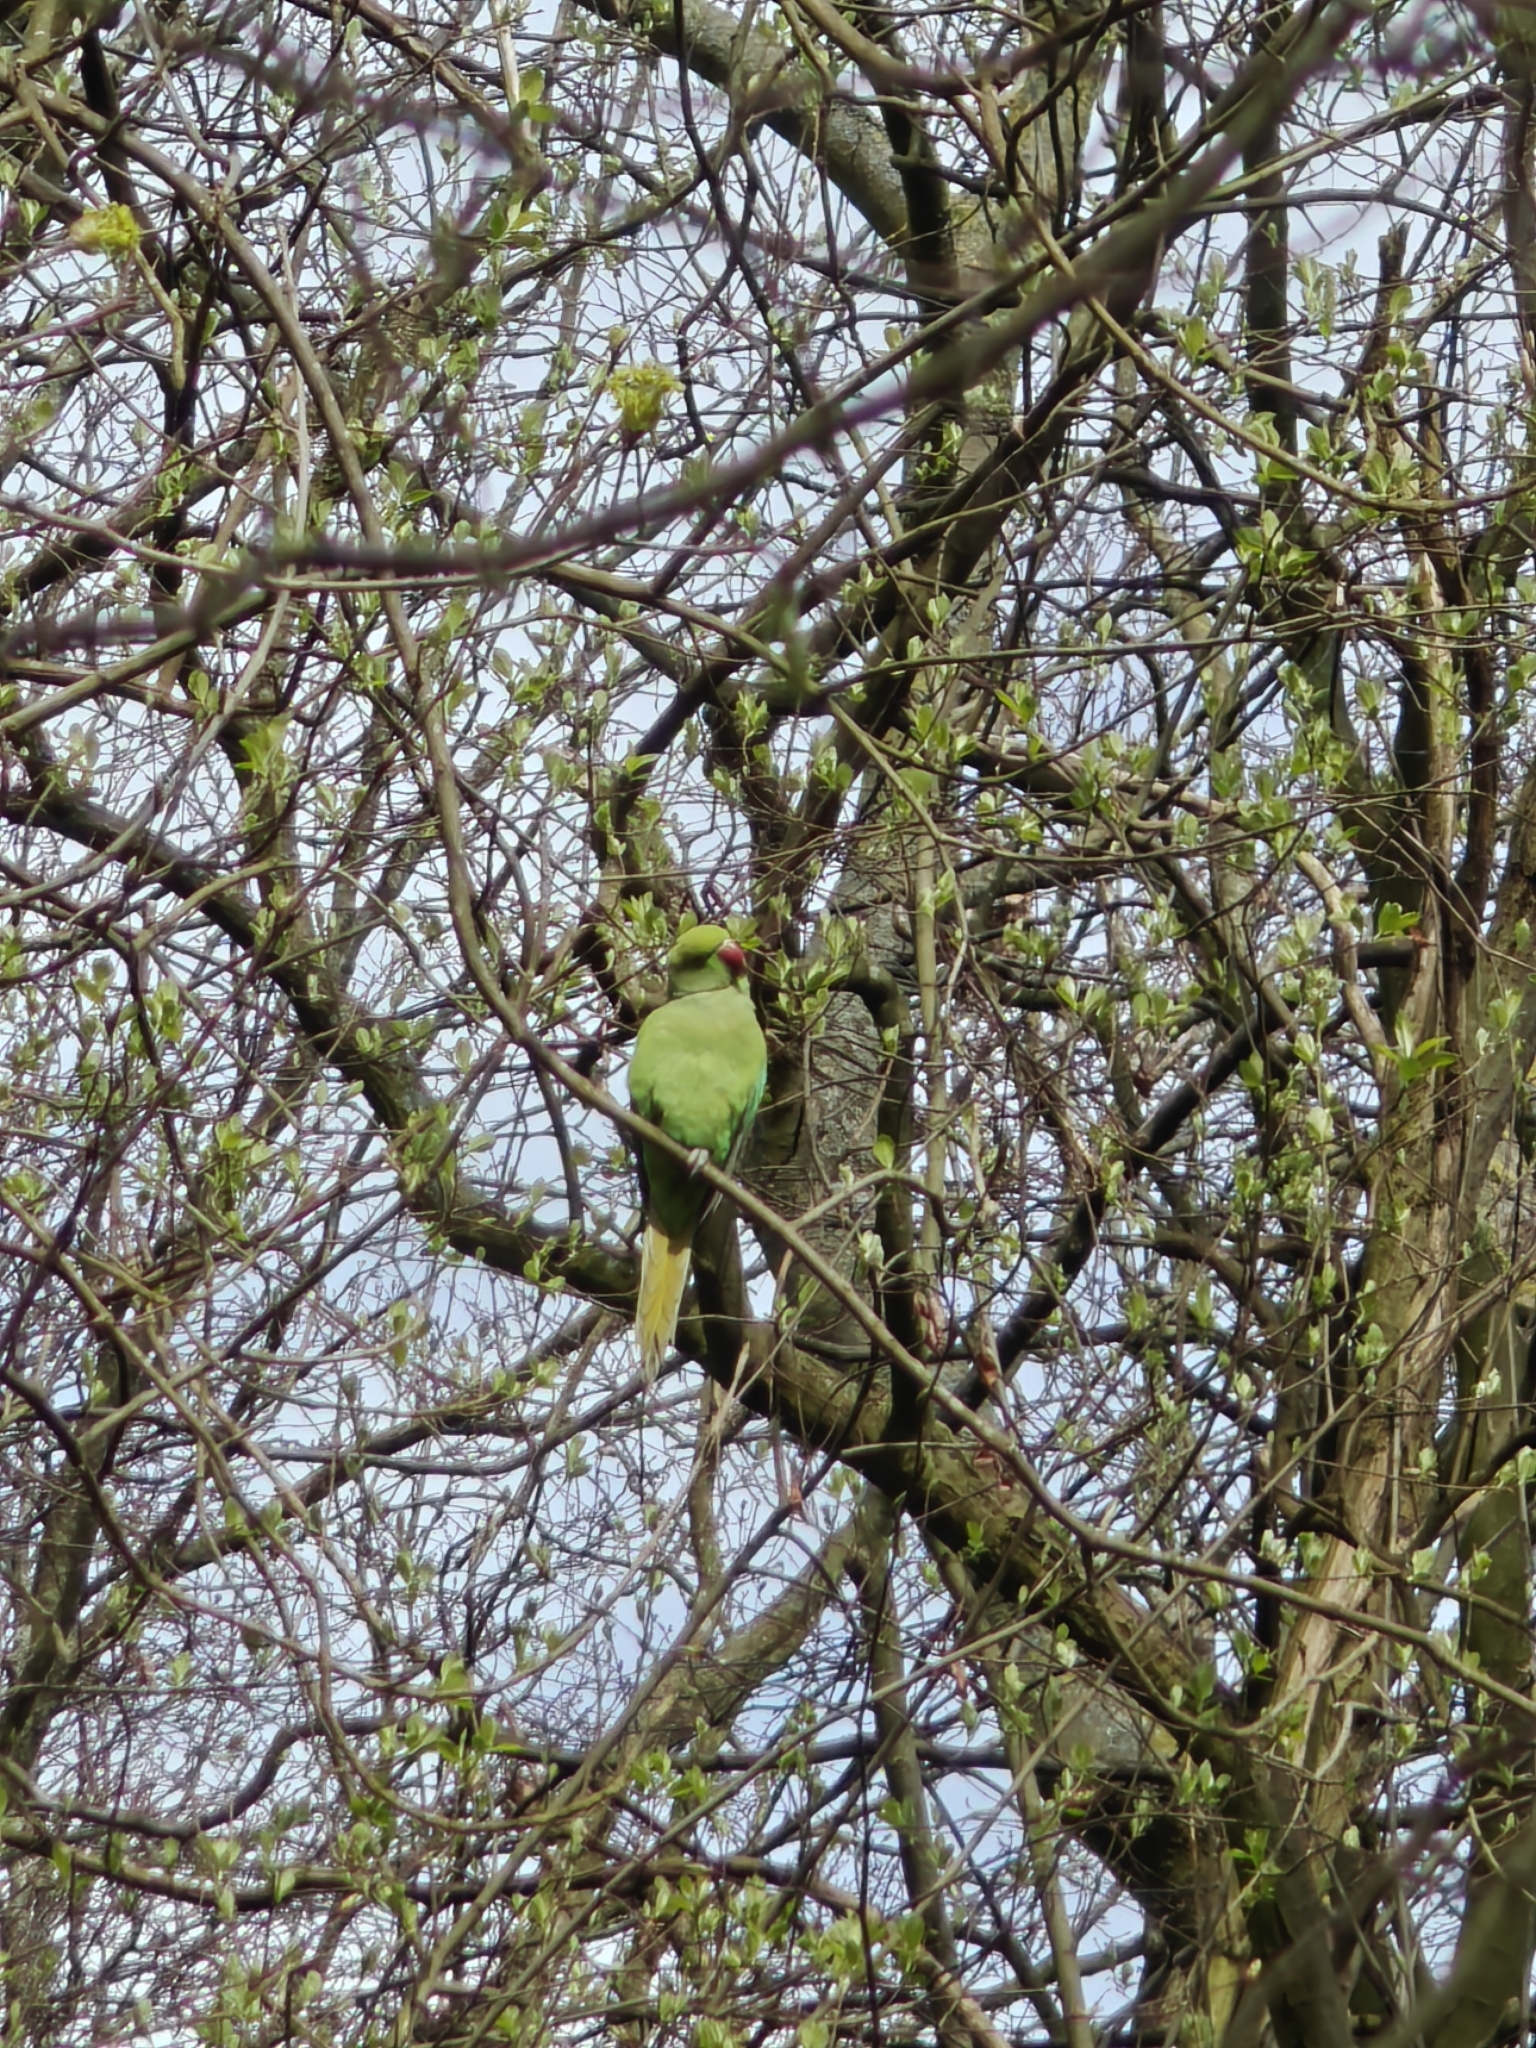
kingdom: Animalia
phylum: Chordata
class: Aves
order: Psittaciformes
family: Psittacidae
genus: Psittacula
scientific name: Psittacula krameri
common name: Rose-ringed parakeet
